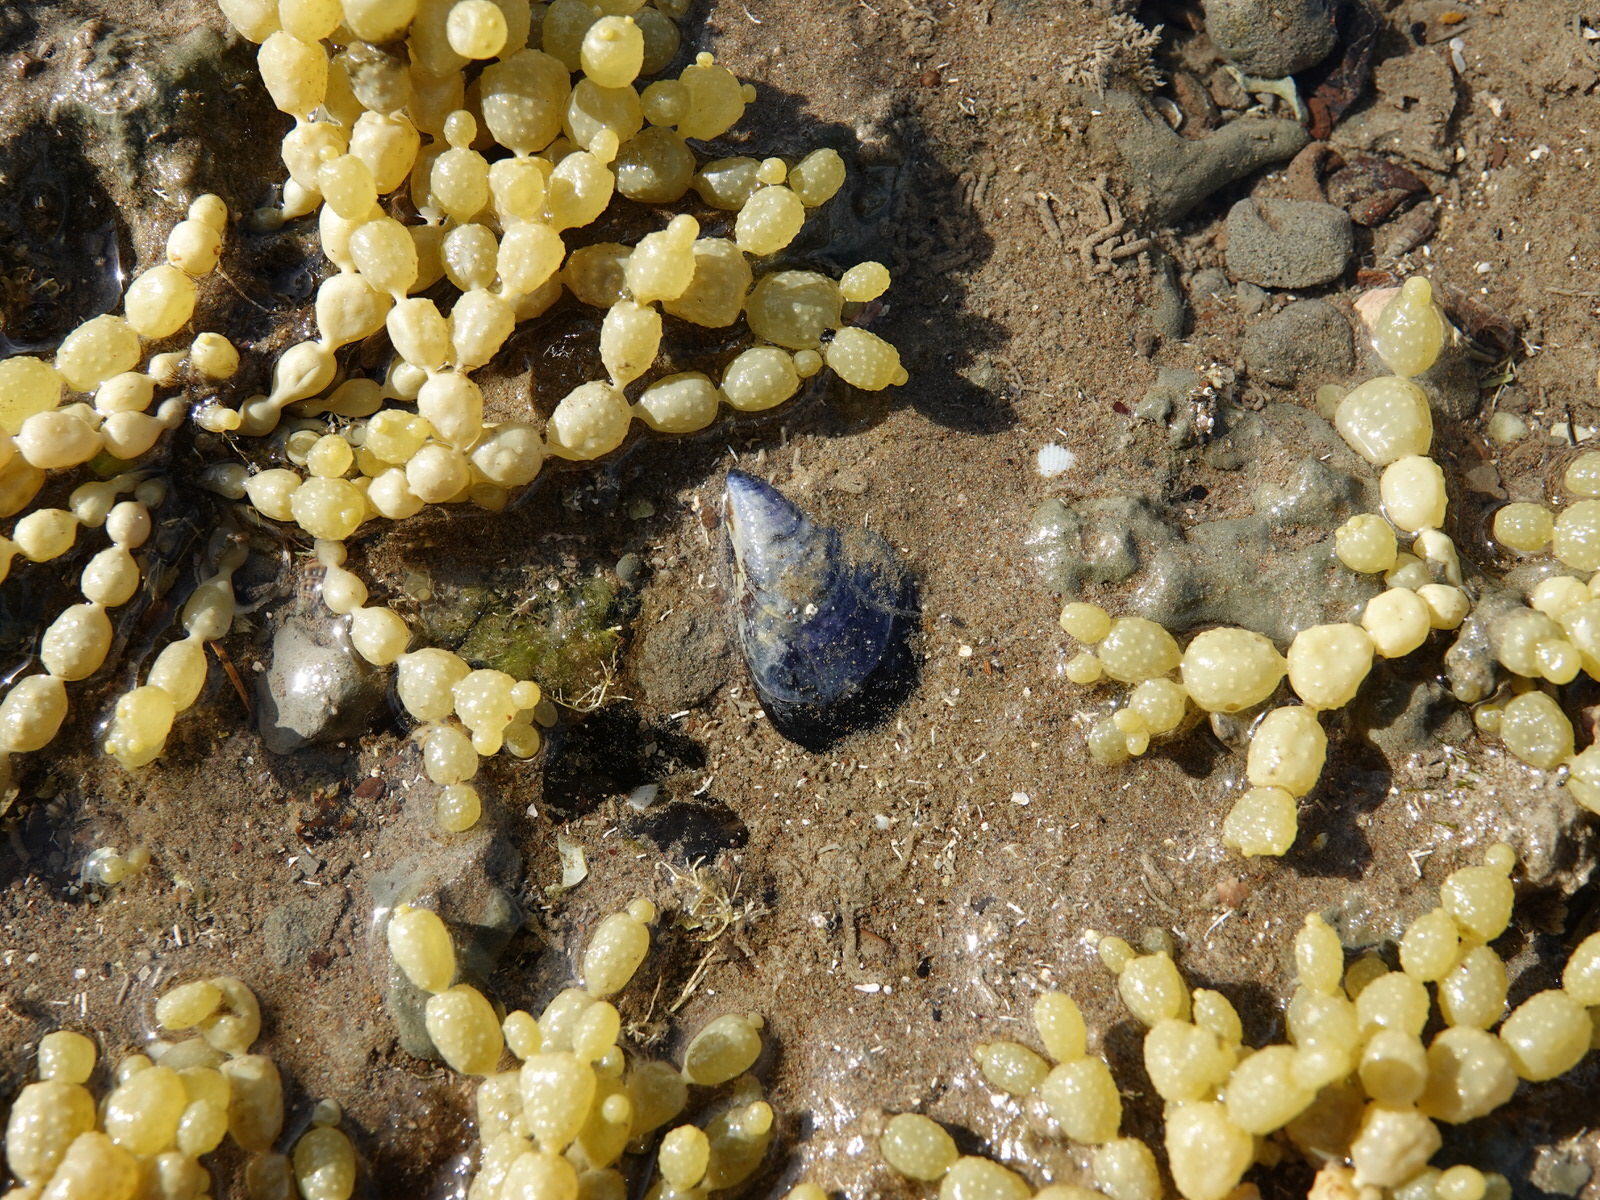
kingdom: Animalia
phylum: Mollusca
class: Bivalvia
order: Mytilida
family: Mytilidae
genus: Mytilus
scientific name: Mytilus planulatus
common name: Australian mussel
